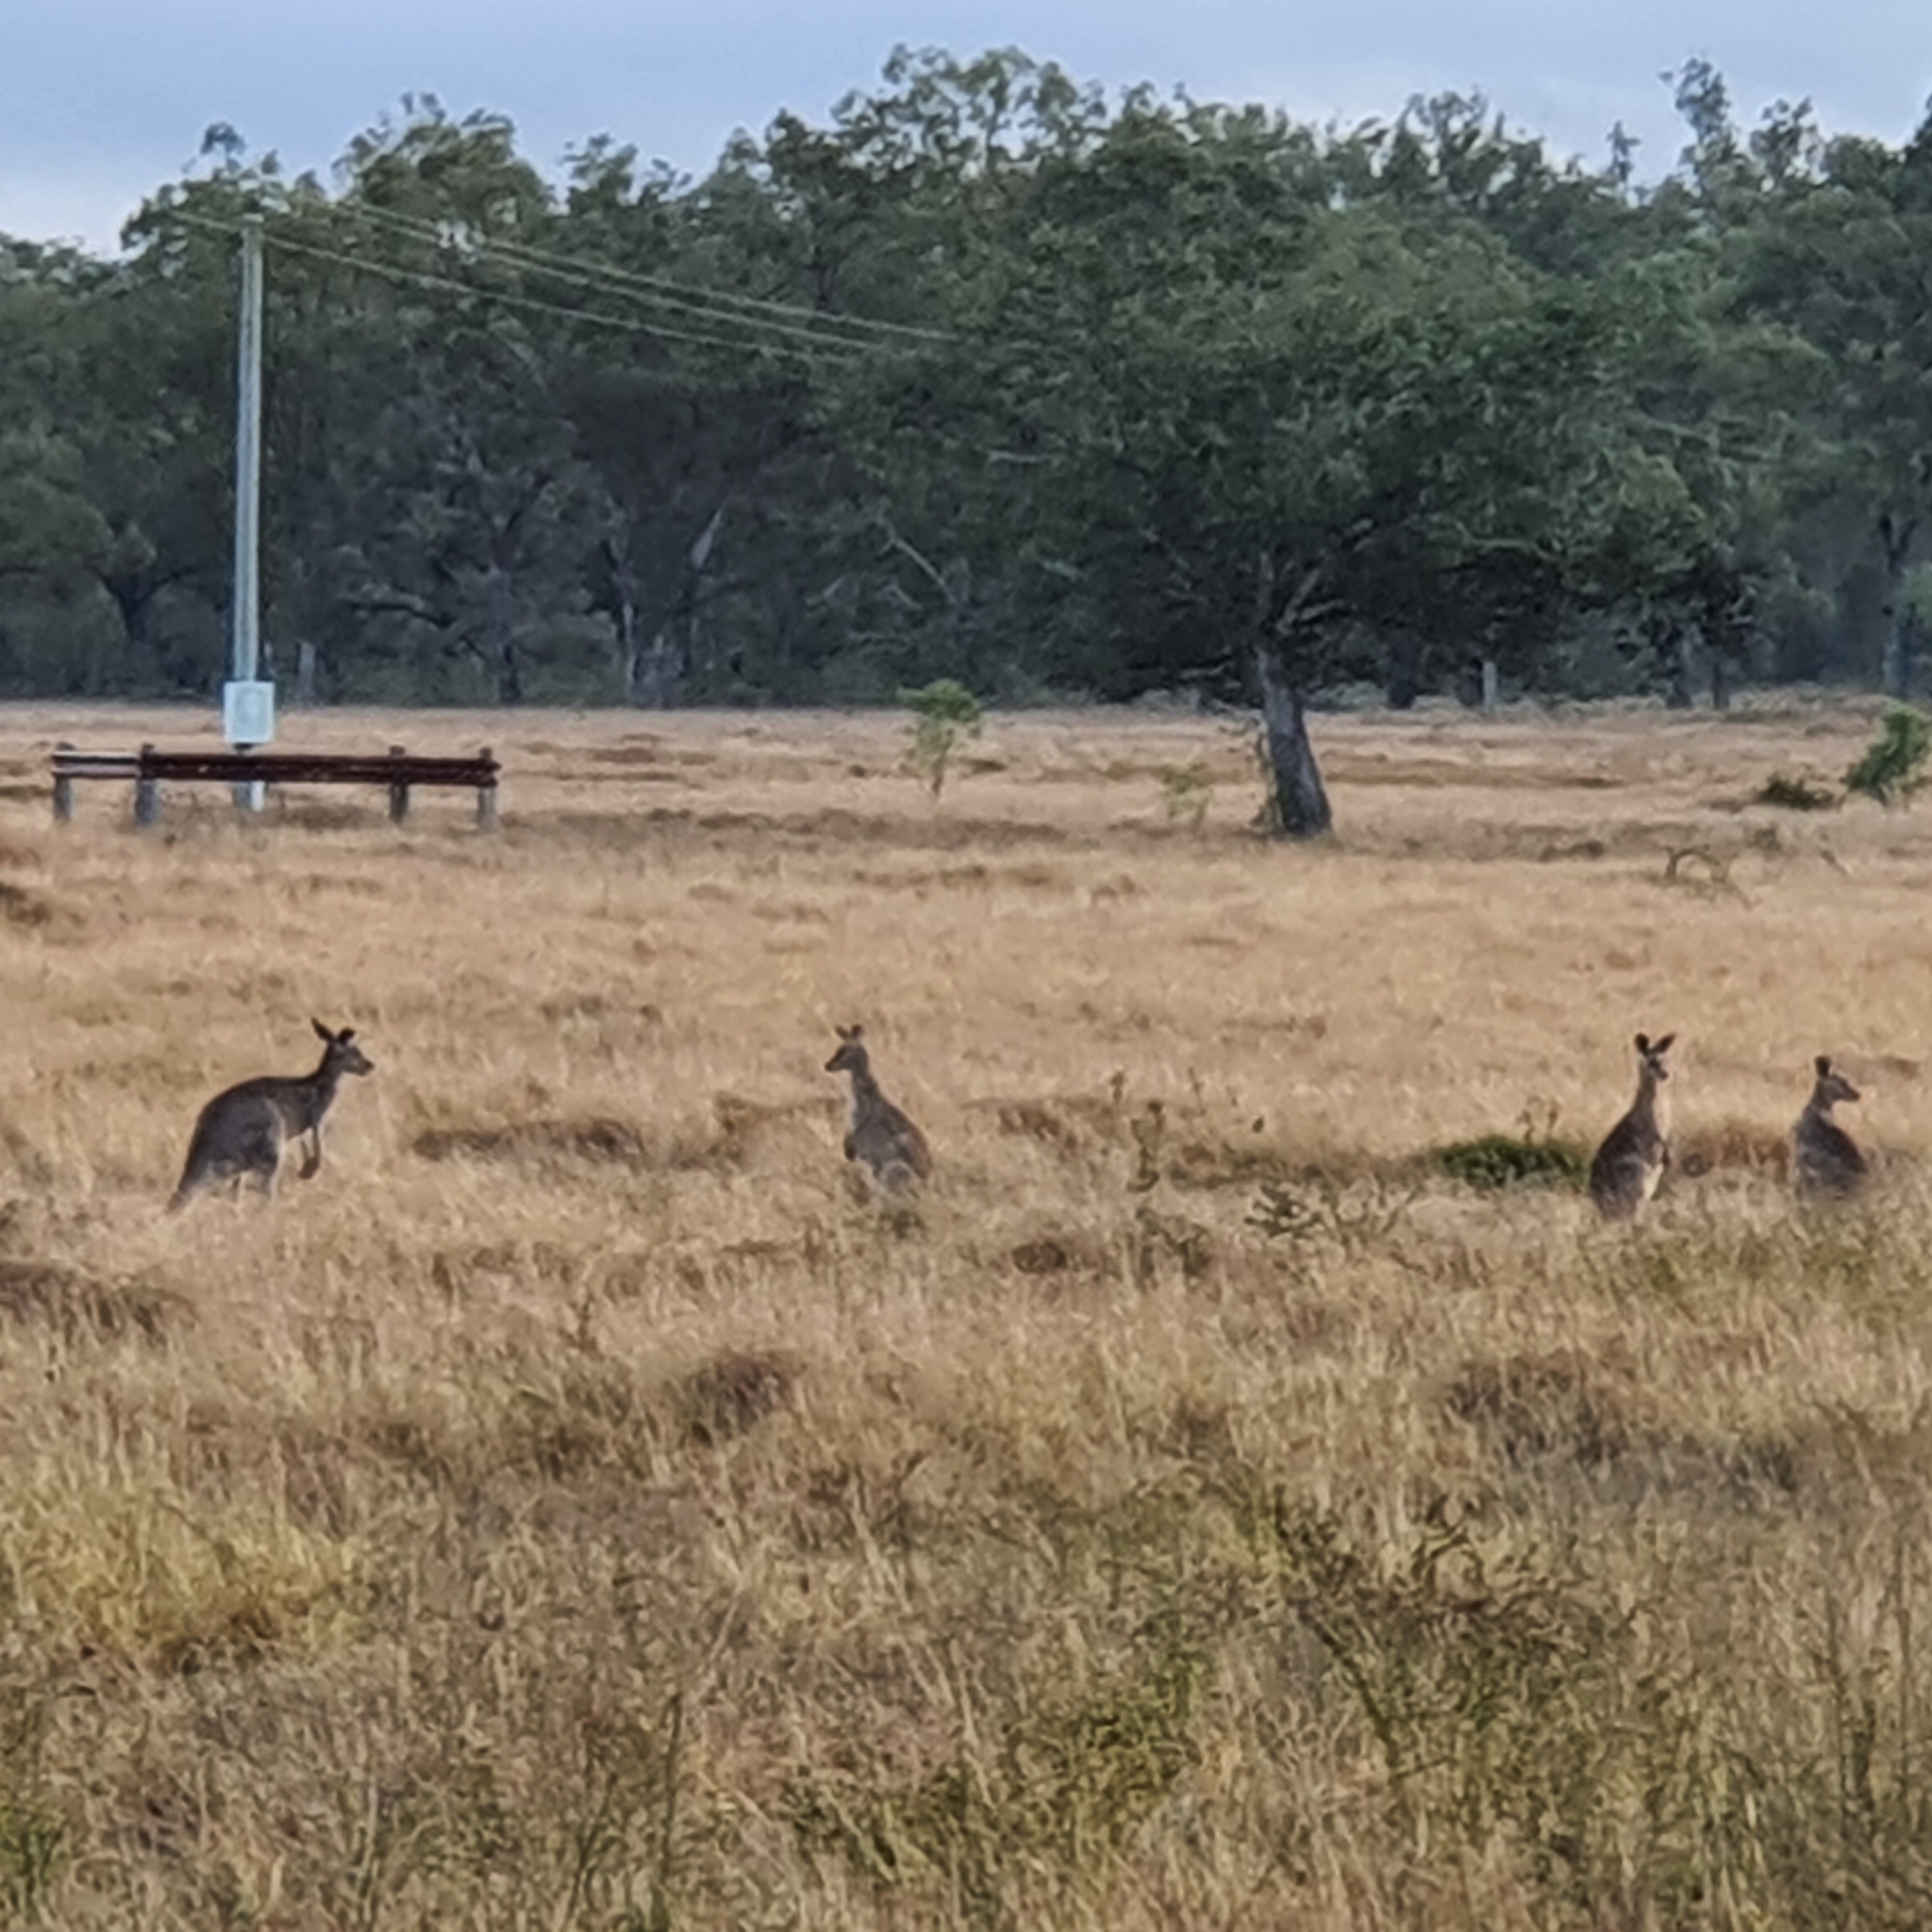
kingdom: Animalia
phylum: Chordata
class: Mammalia
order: Diprotodontia
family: Macropodidae
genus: Macropus
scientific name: Macropus giganteus
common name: Eastern grey kangaroo
